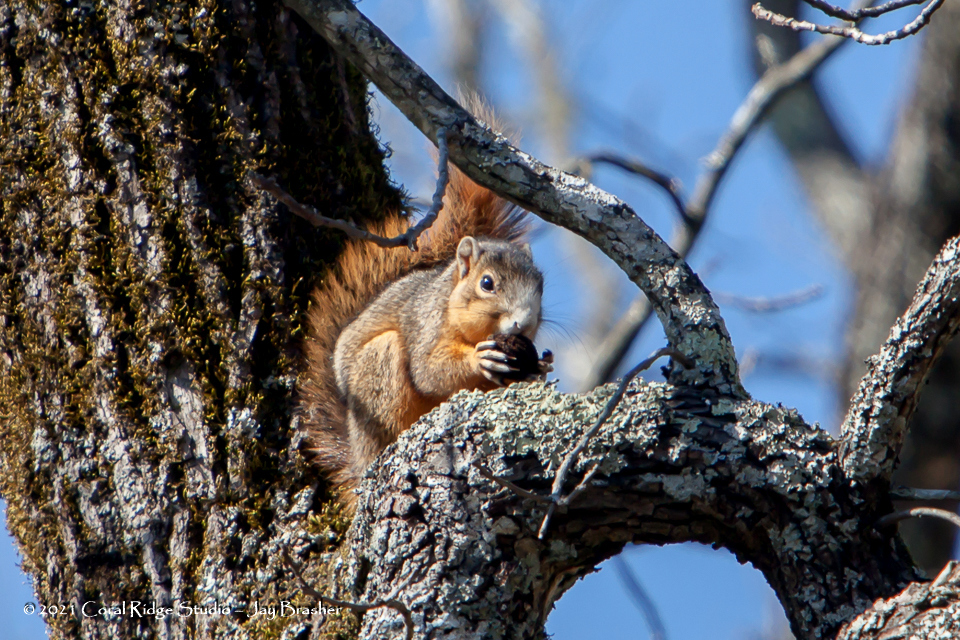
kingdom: Animalia
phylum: Chordata
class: Mammalia
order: Rodentia
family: Sciuridae
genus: Sciurus
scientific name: Sciurus niger
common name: Fox squirrel
